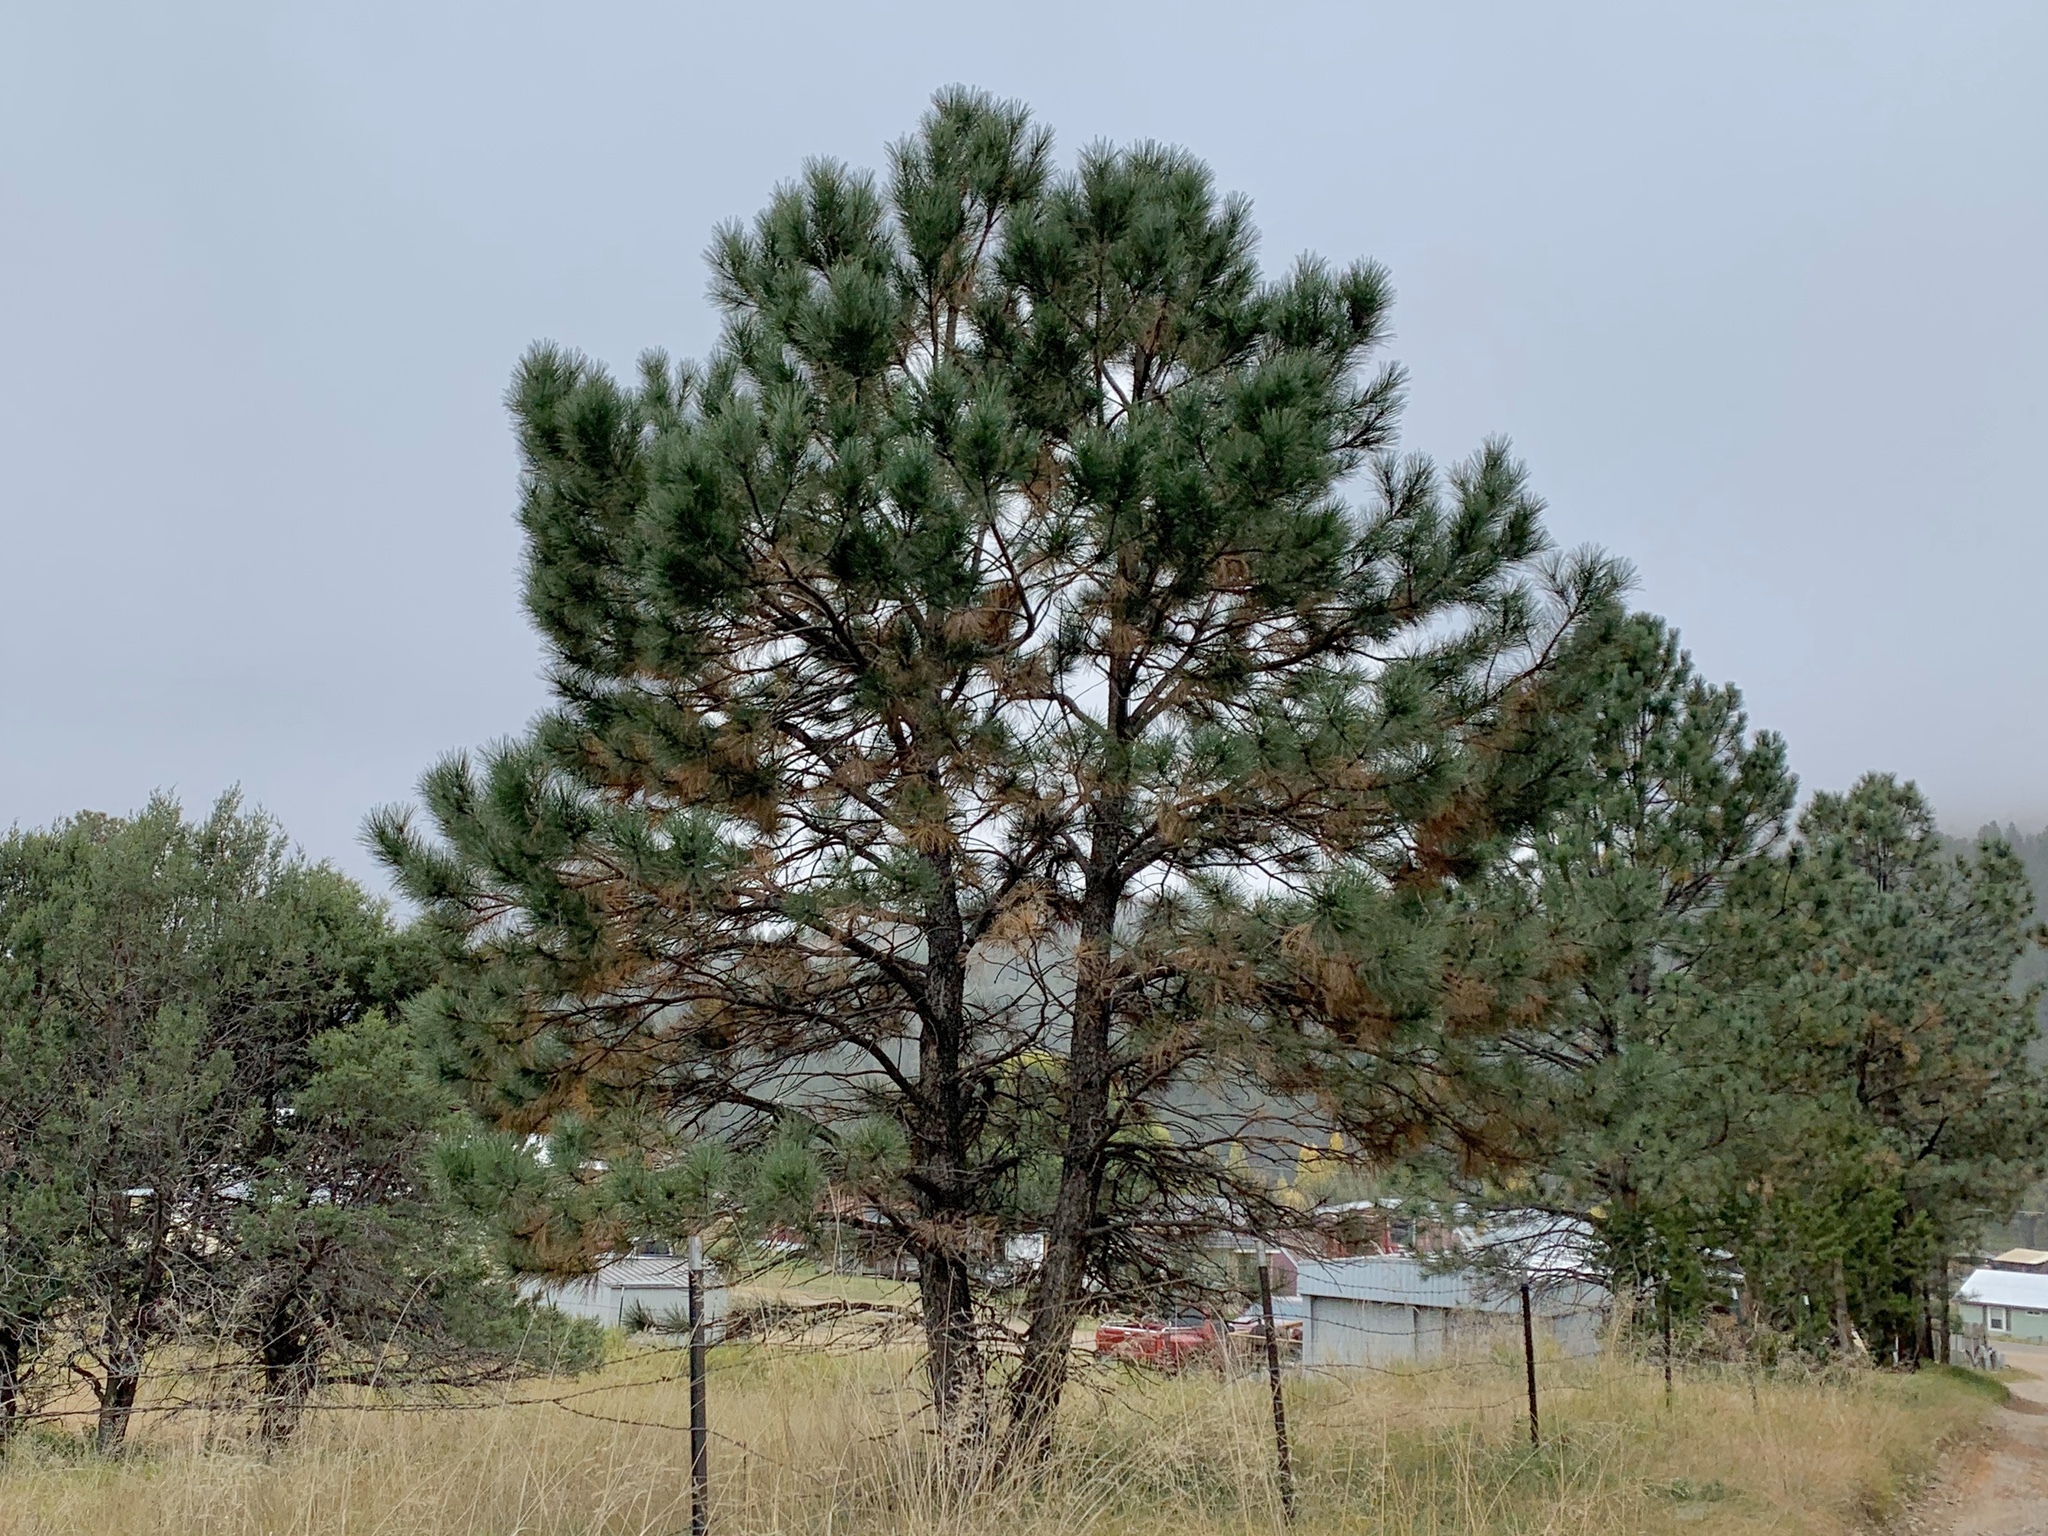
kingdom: Plantae
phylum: Tracheophyta
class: Pinopsida
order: Pinales
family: Pinaceae
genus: Pinus
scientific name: Pinus ponderosa
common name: Western yellow-pine
